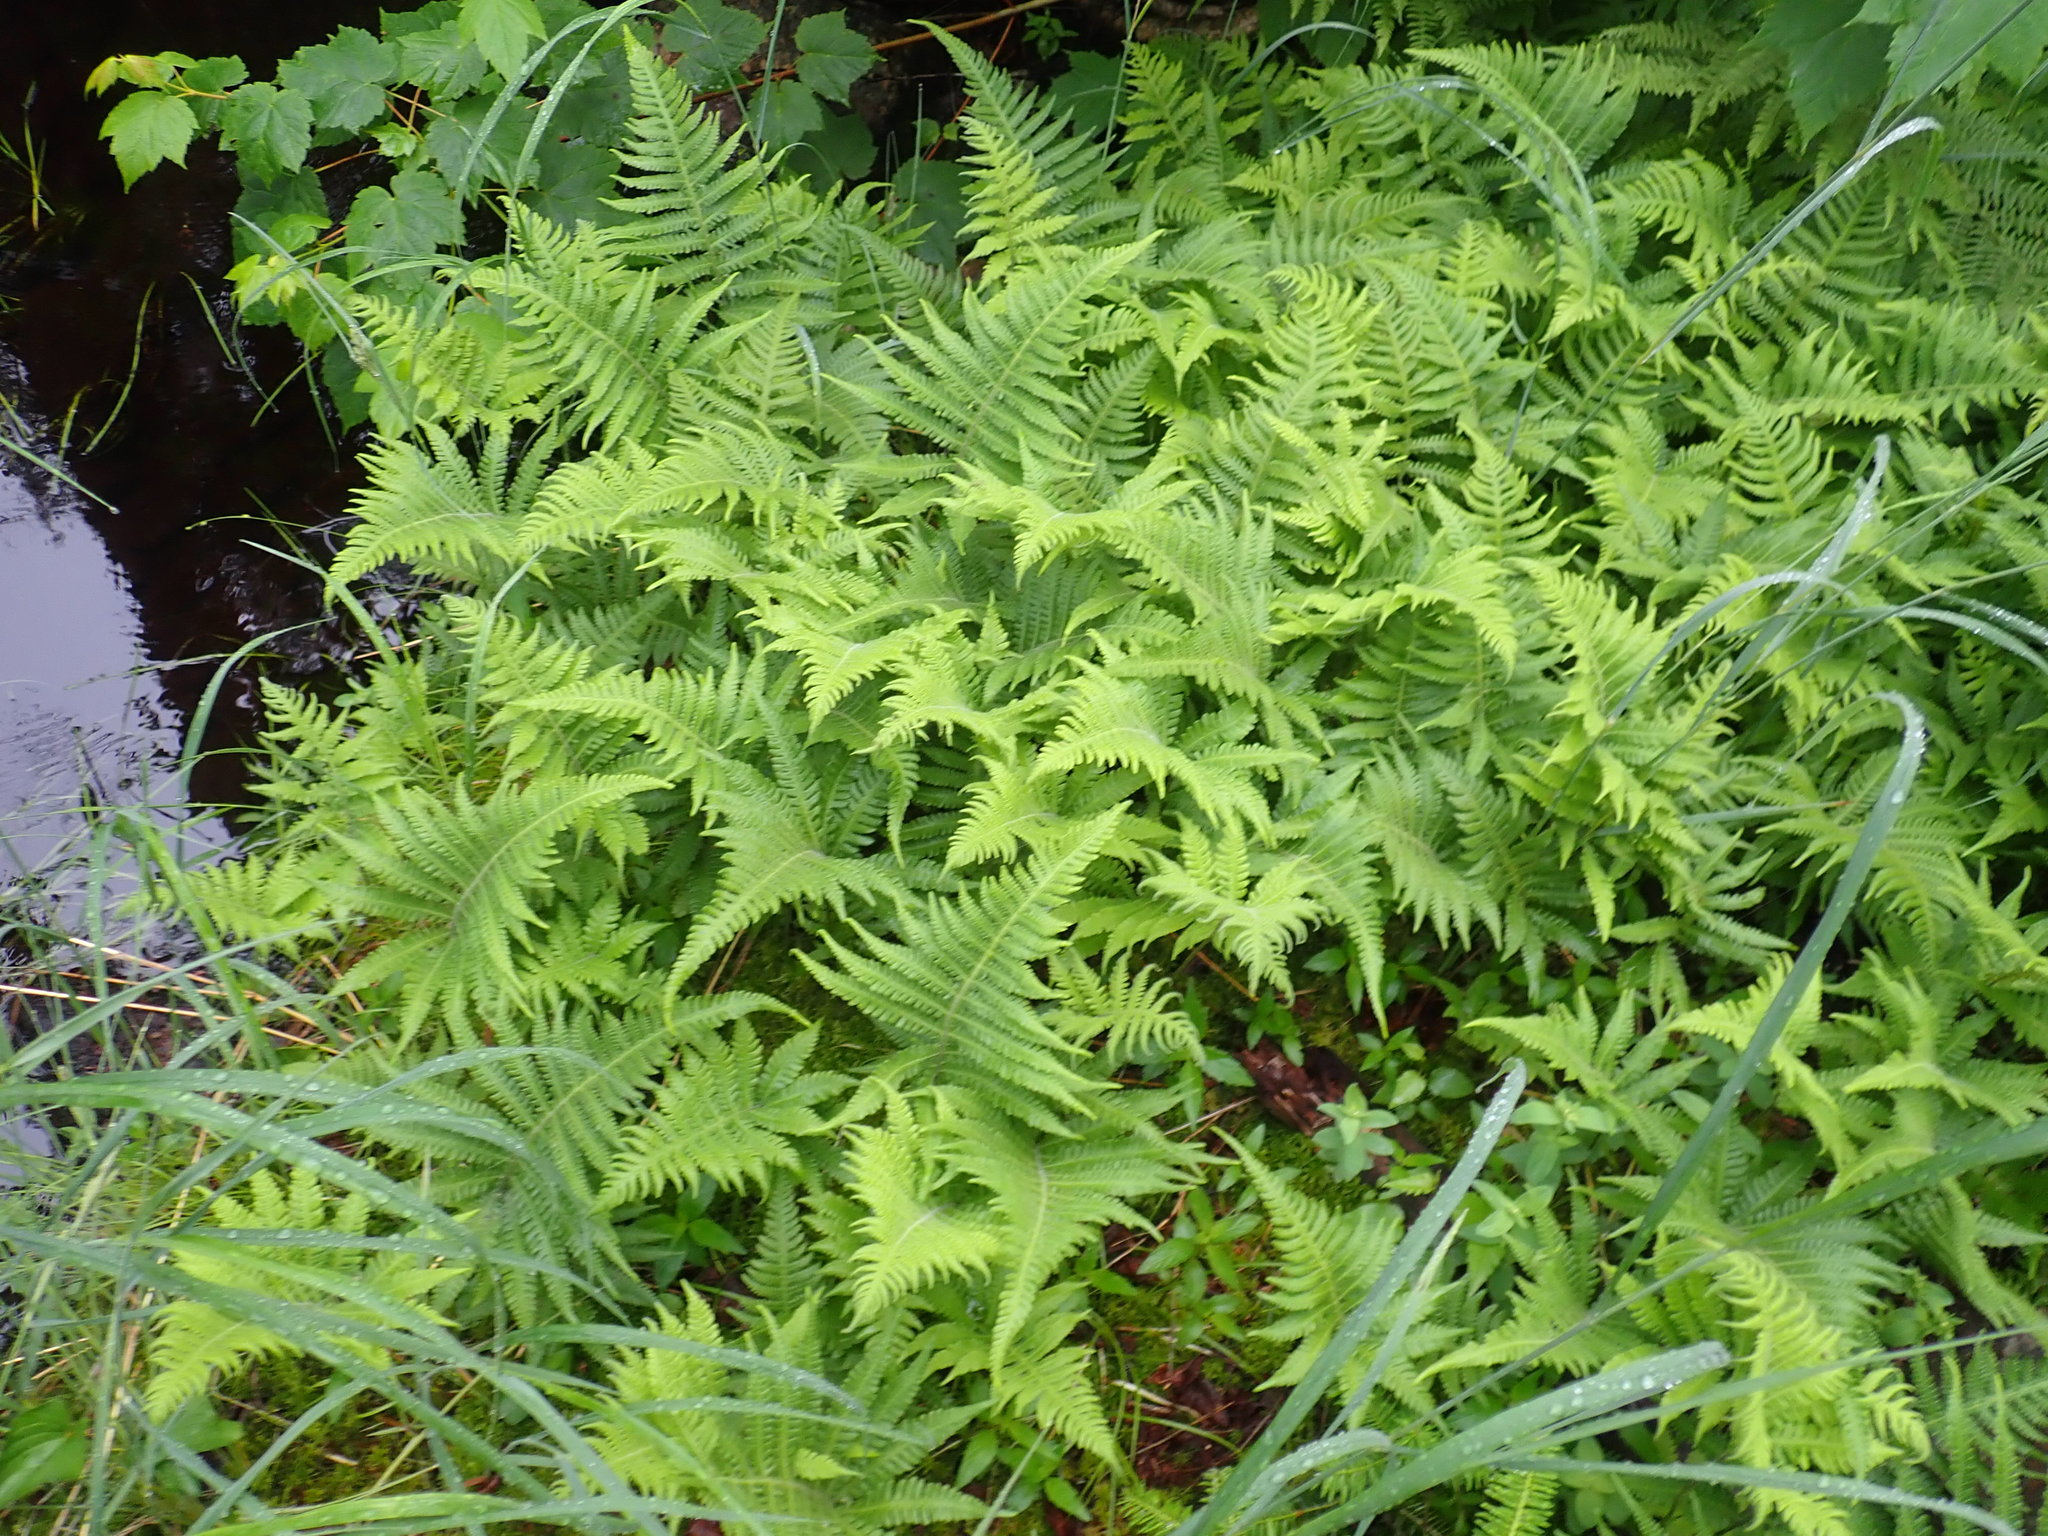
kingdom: Plantae
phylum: Tracheophyta
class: Polypodiopsida
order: Polypodiales
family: Thelypteridaceae
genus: Phegopteris
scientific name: Phegopteris connectilis
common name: Beech fern
